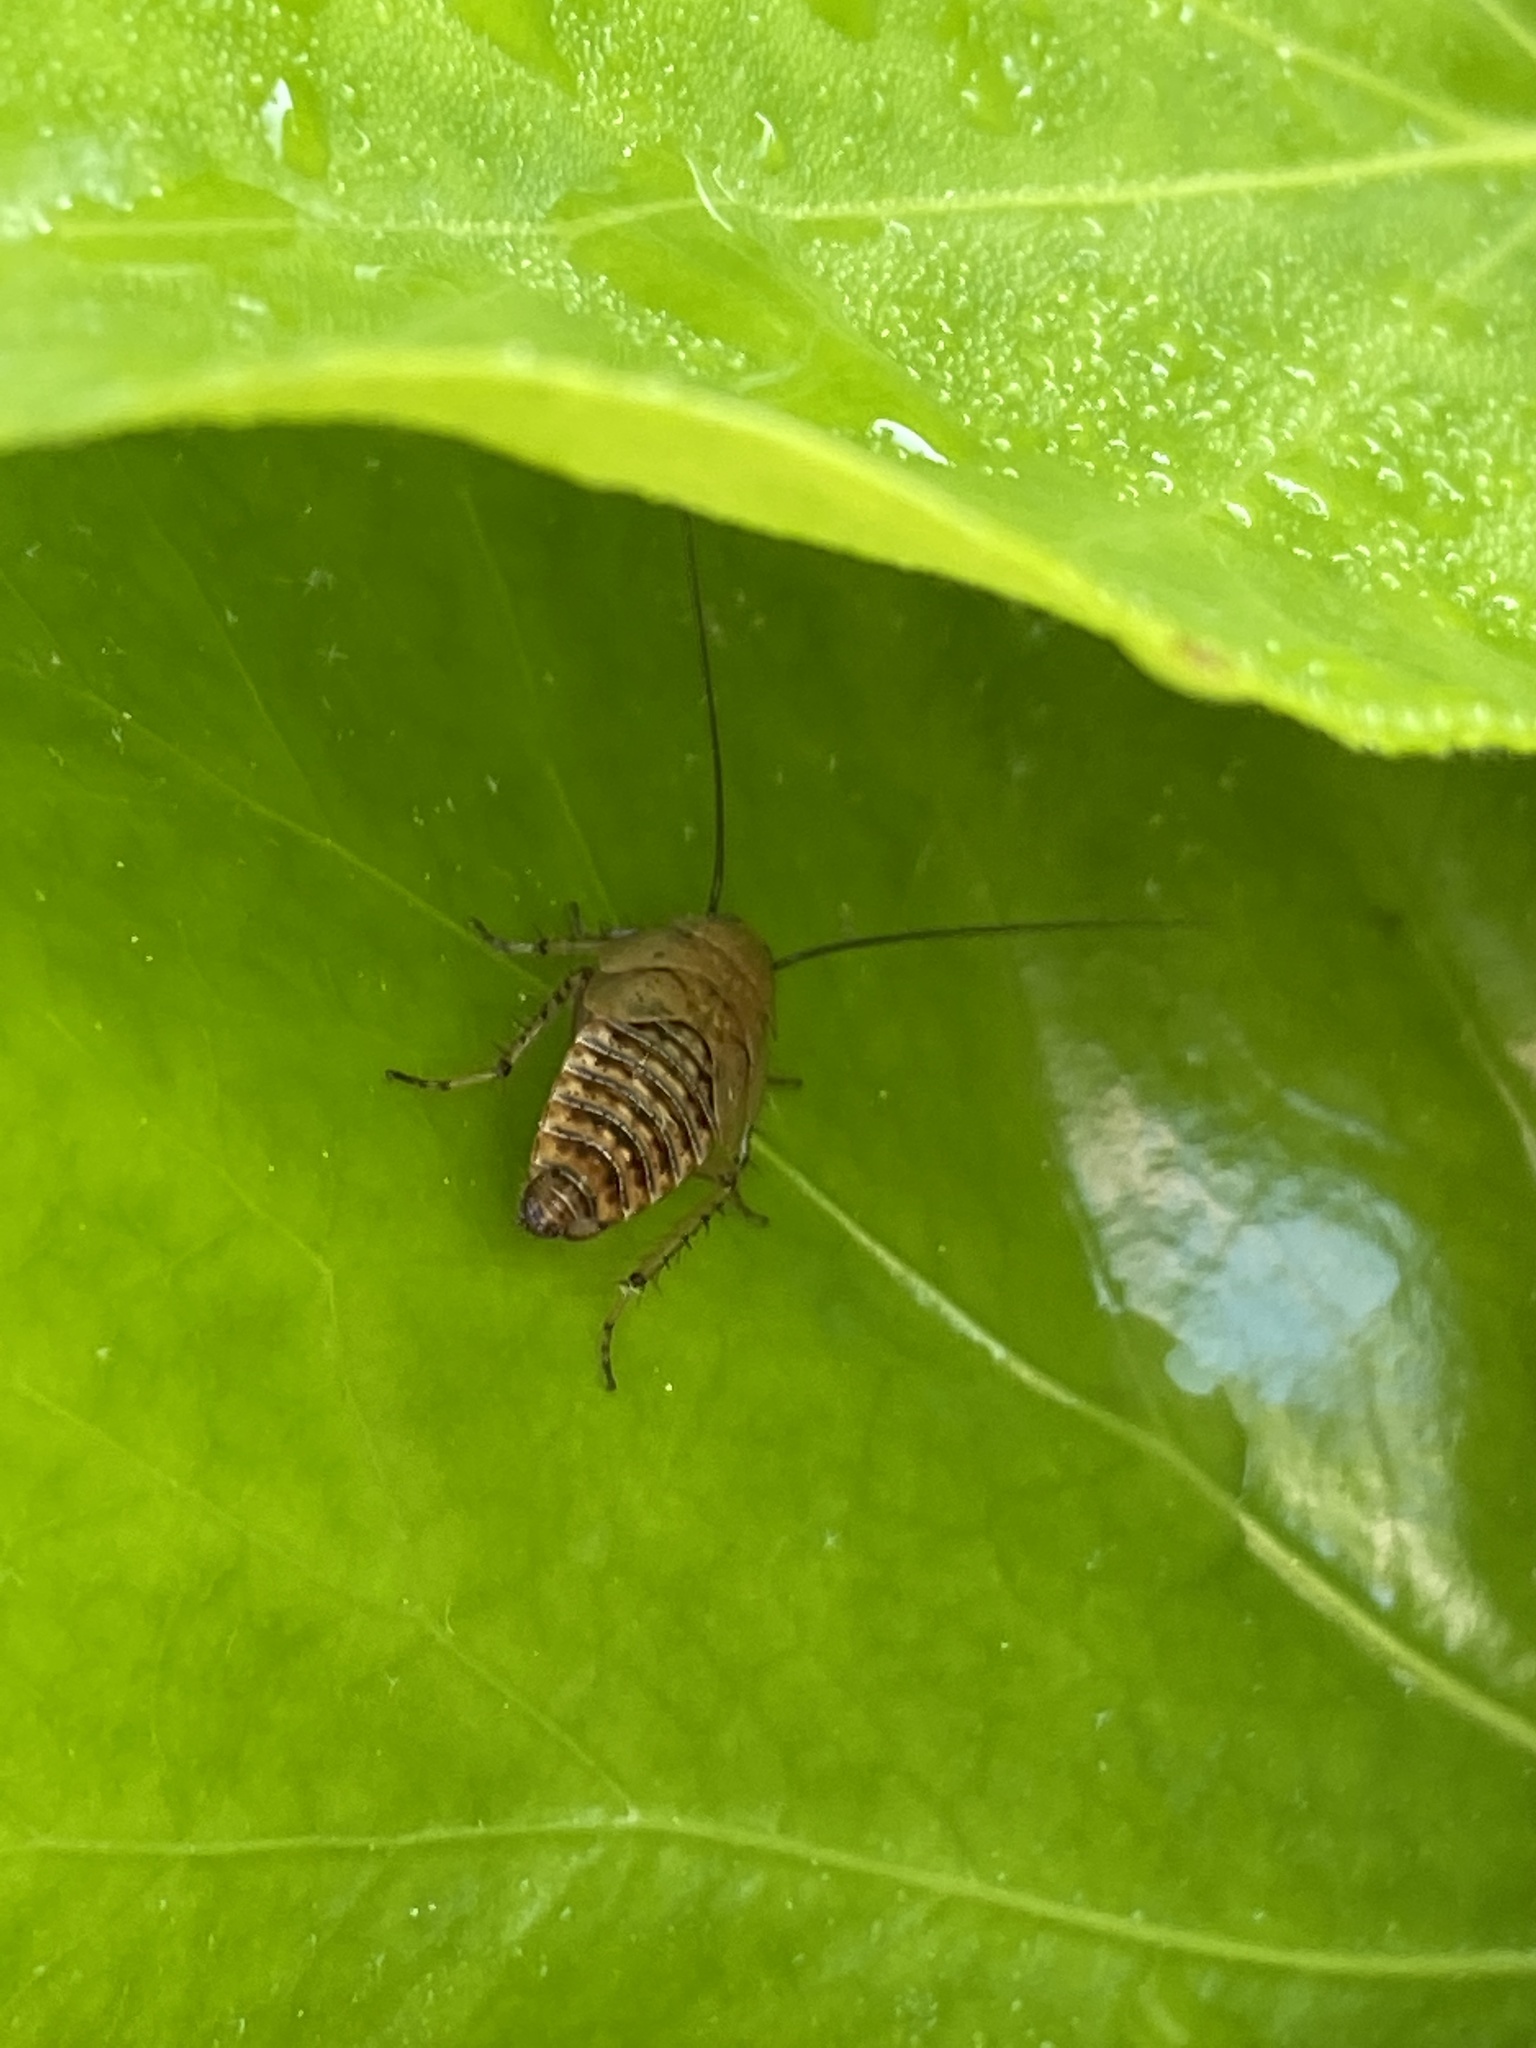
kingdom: Animalia
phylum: Arthropoda
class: Insecta
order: Blattodea
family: Ectobiidae
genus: Ectobius
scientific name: Ectobius lapponicus
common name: Dusky cockroach
